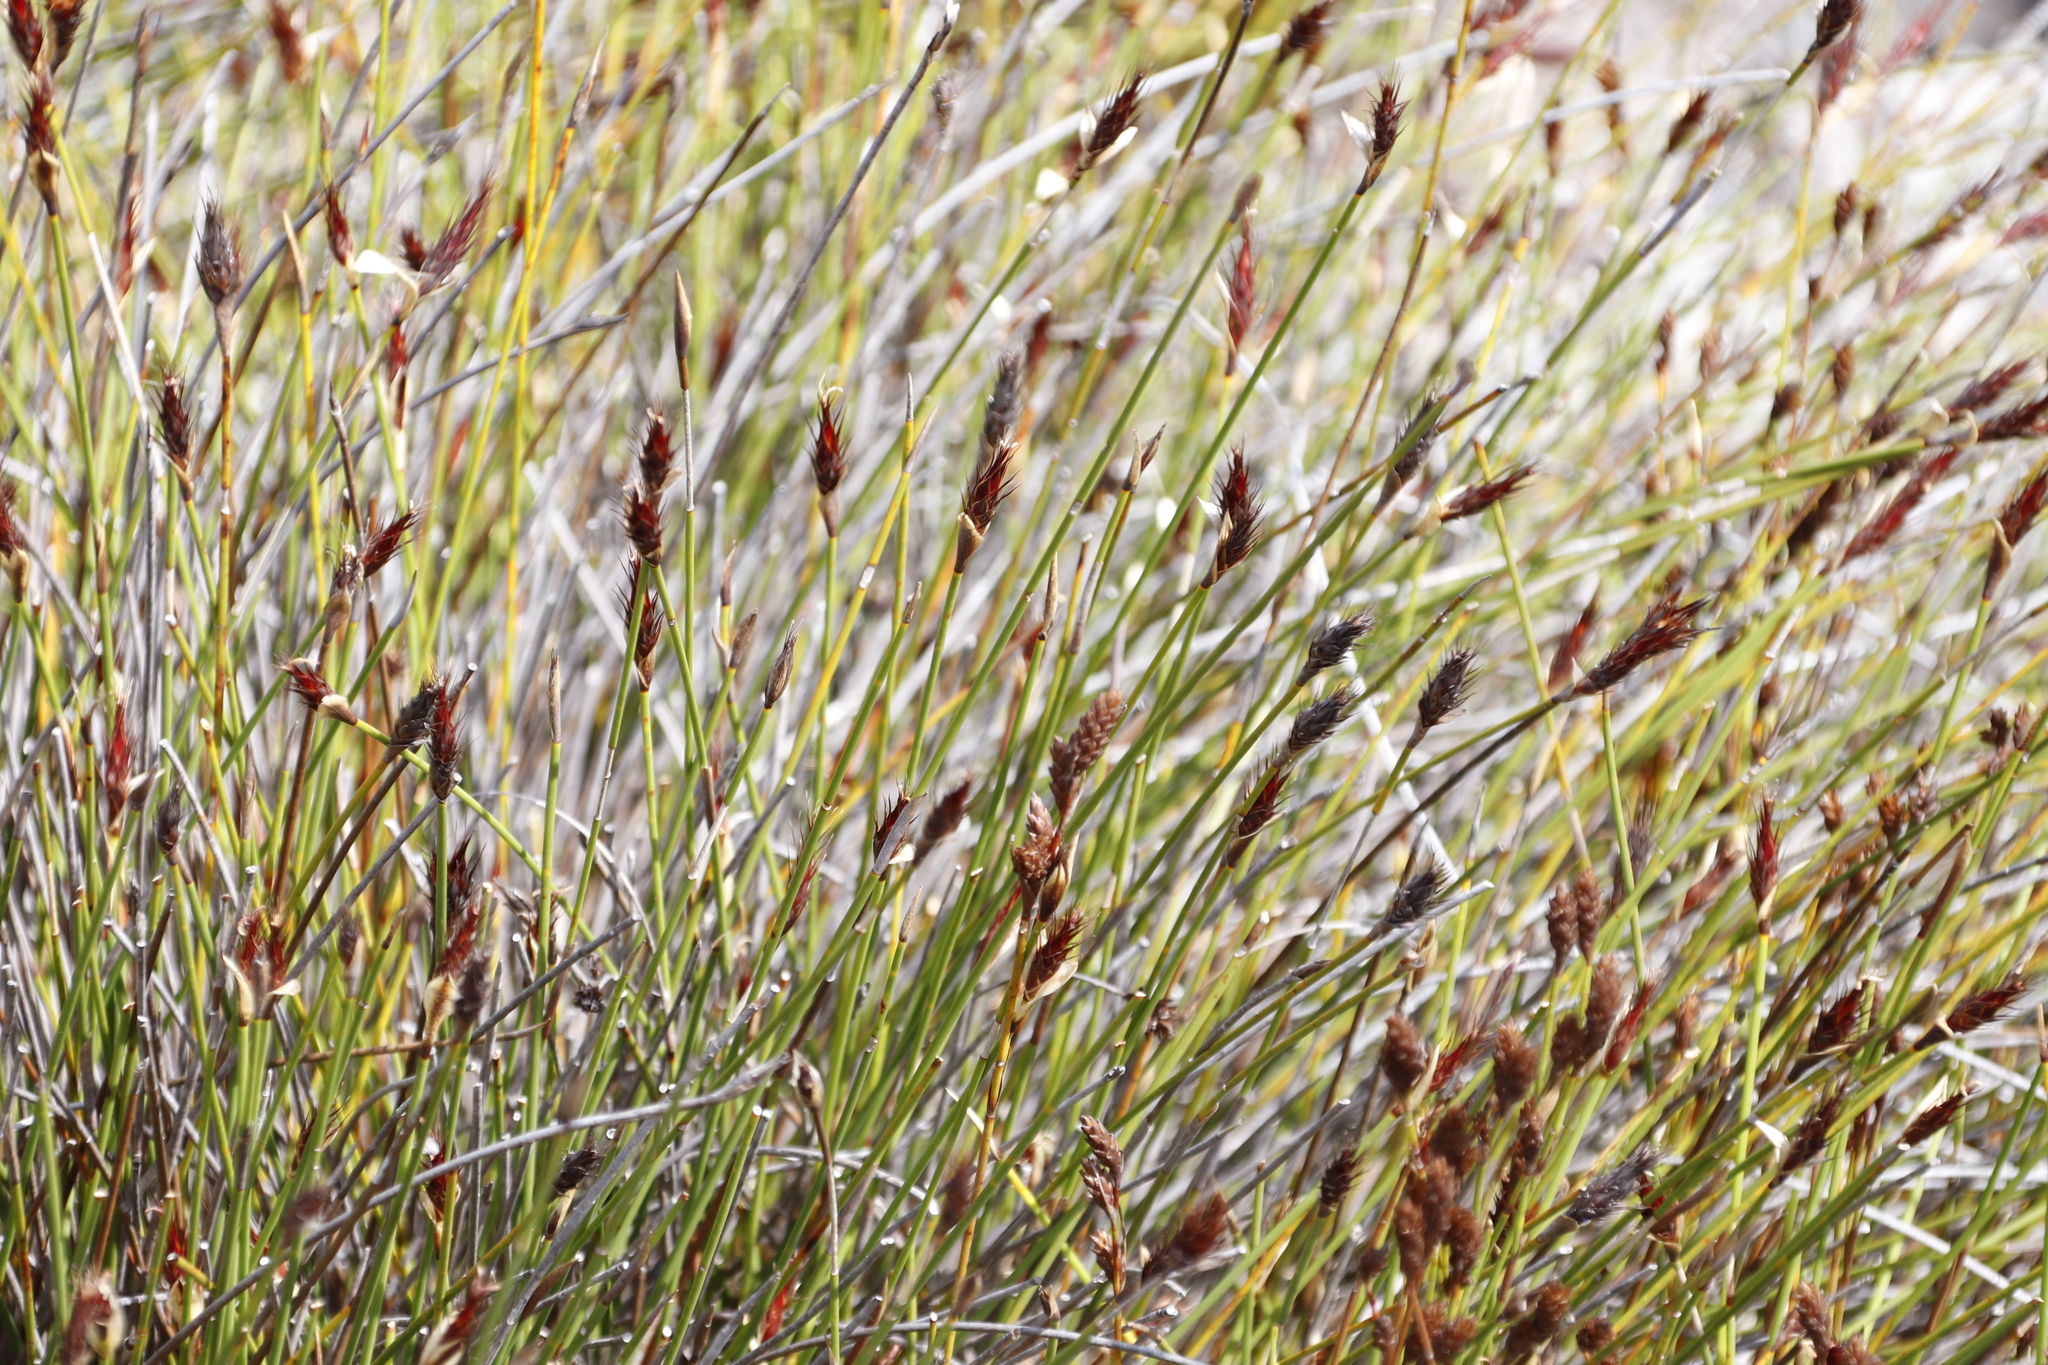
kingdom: Plantae
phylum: Tracheophyta
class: Liliopsida
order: Poales
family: Restionaceae
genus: Hypodiscus
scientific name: Hypodiscus aristatus
